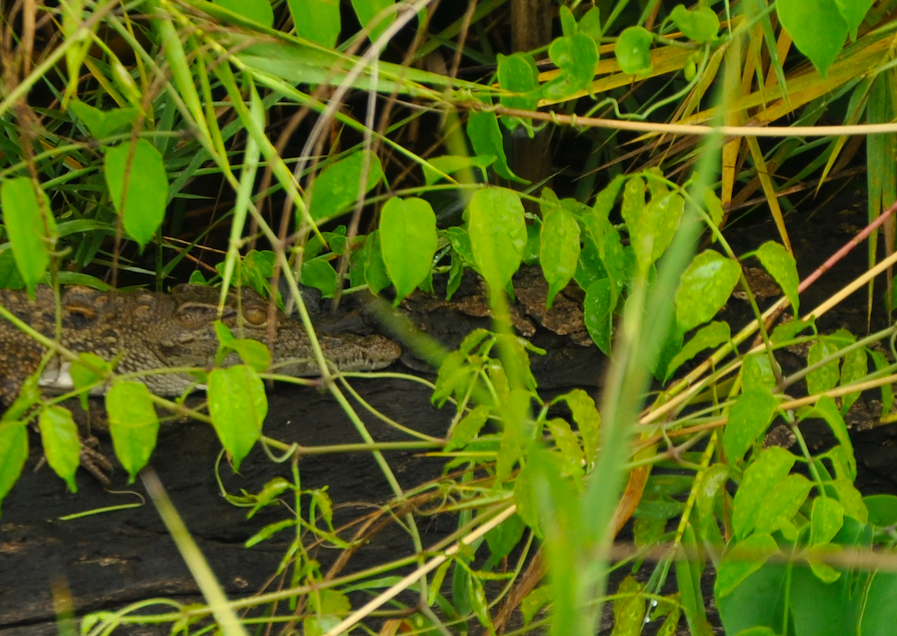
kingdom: Animalia
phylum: Chordata
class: Crocodylia
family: Crocodylidae
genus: Crocodylus
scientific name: Crocodylus niloticus
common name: Nile crocodile
